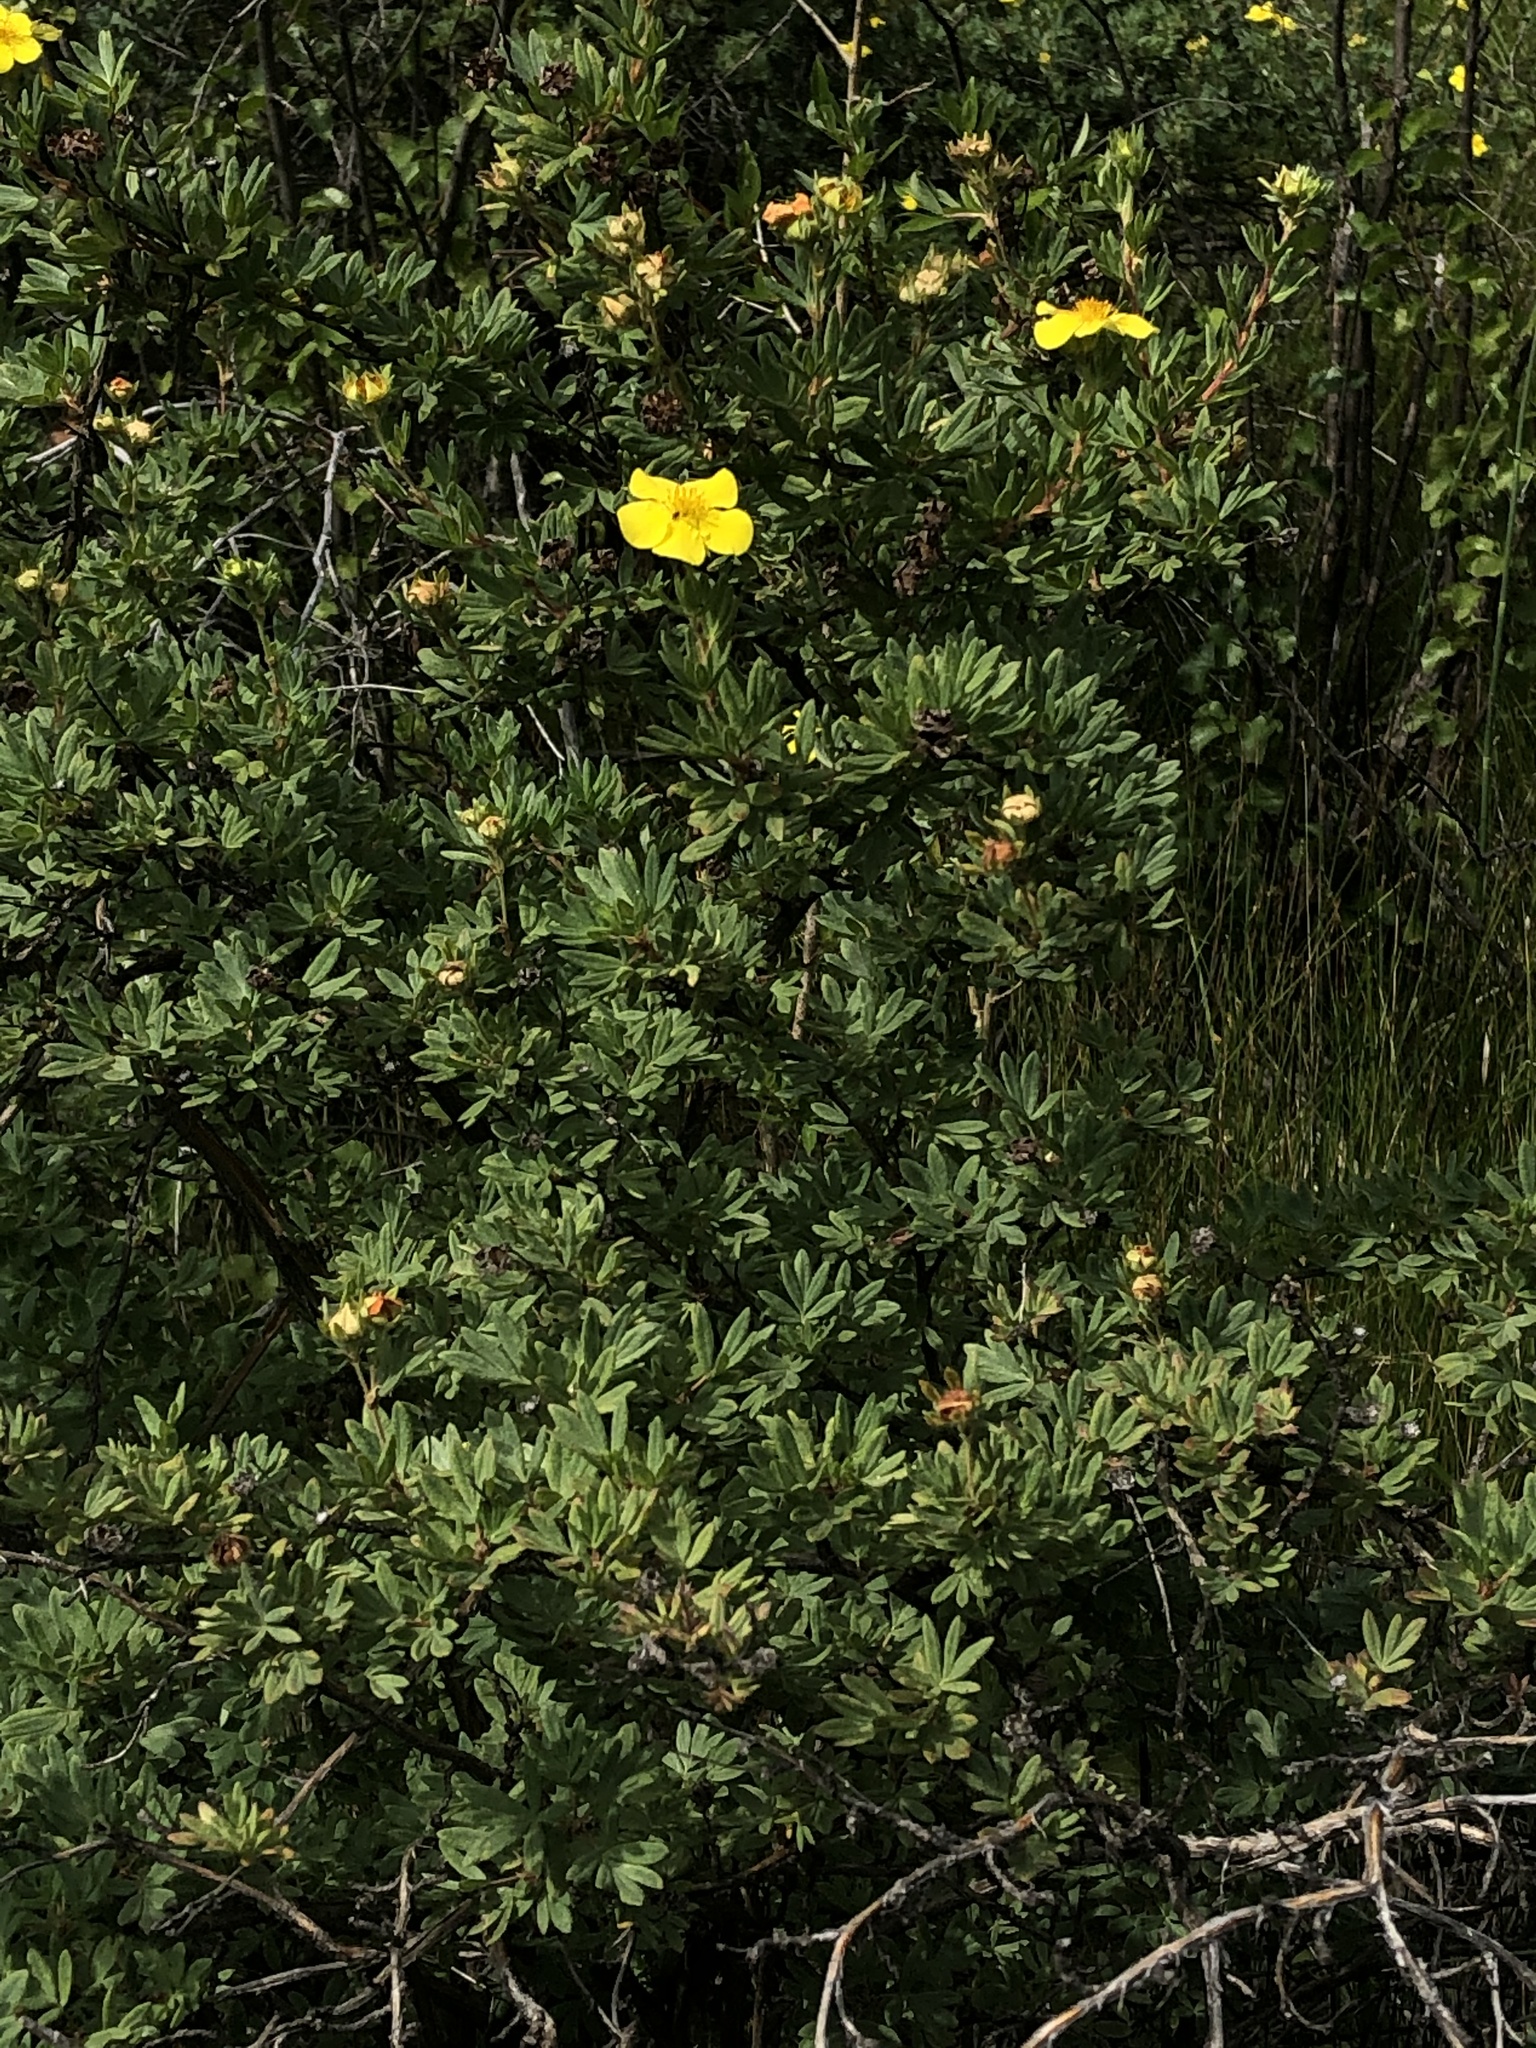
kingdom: Plantae
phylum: Tracheophyta
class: Magnoliopsida
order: Rosales
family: Rosaceae
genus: Dasiphora
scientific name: Dasiphora fruticosa
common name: Shrubby cinquefoil
